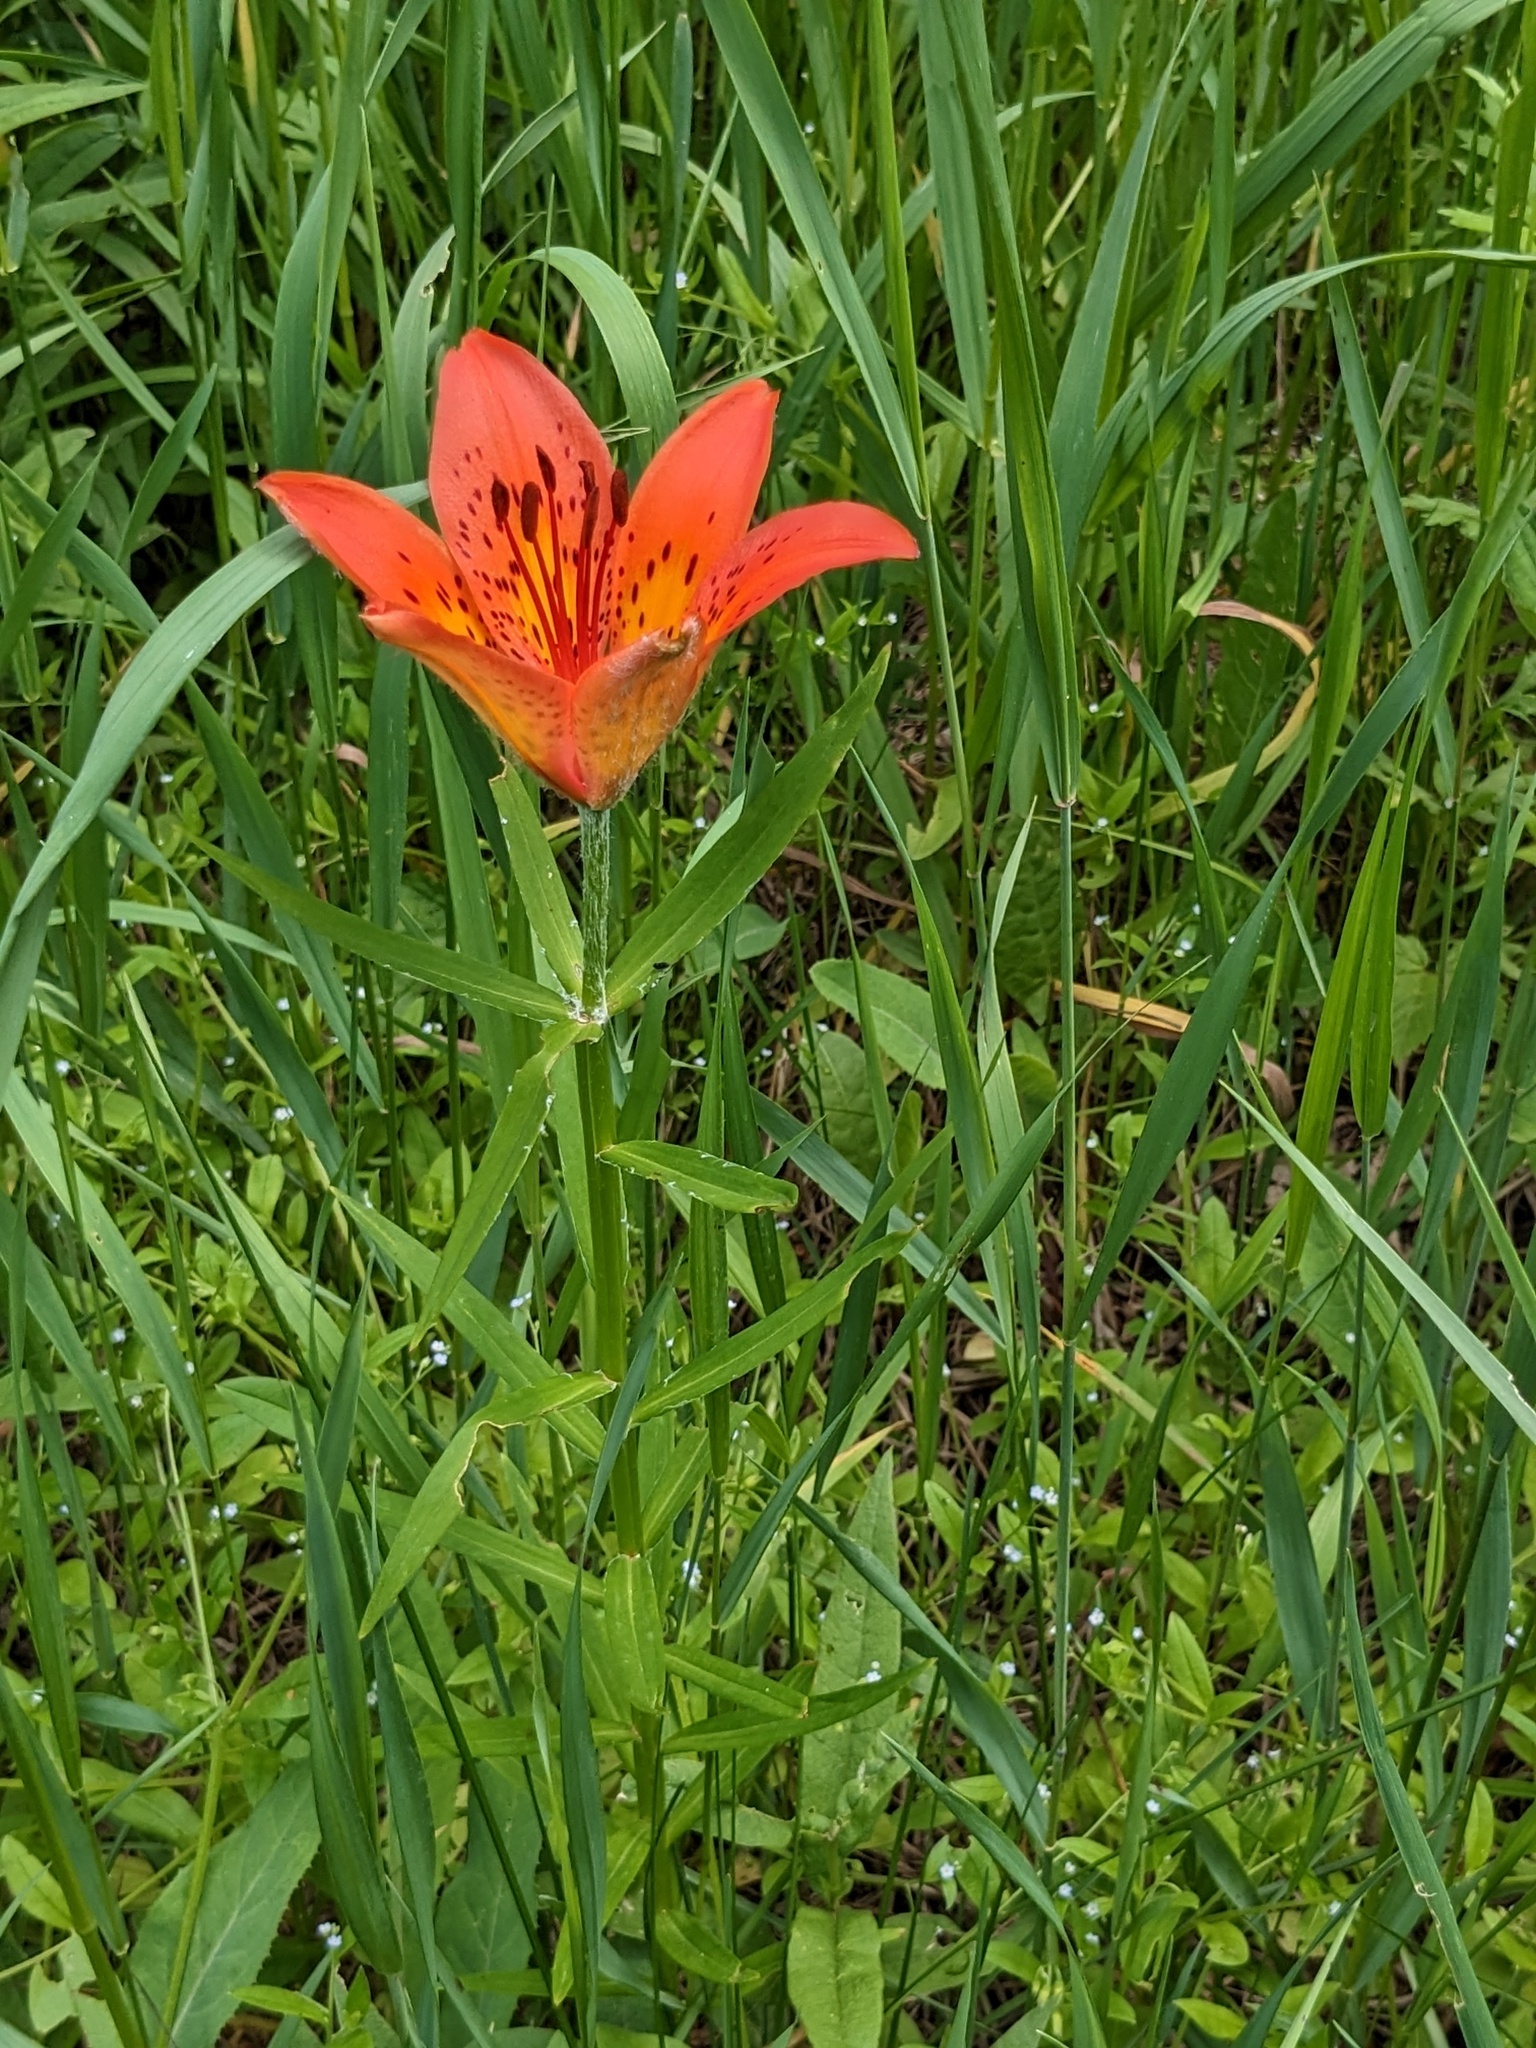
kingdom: Plantae
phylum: Tracheophyta
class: Liliopsida
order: Liliales
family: Liliaceae
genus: Lilium
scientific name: Lilium pensylvanicum
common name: Candlestick lily
